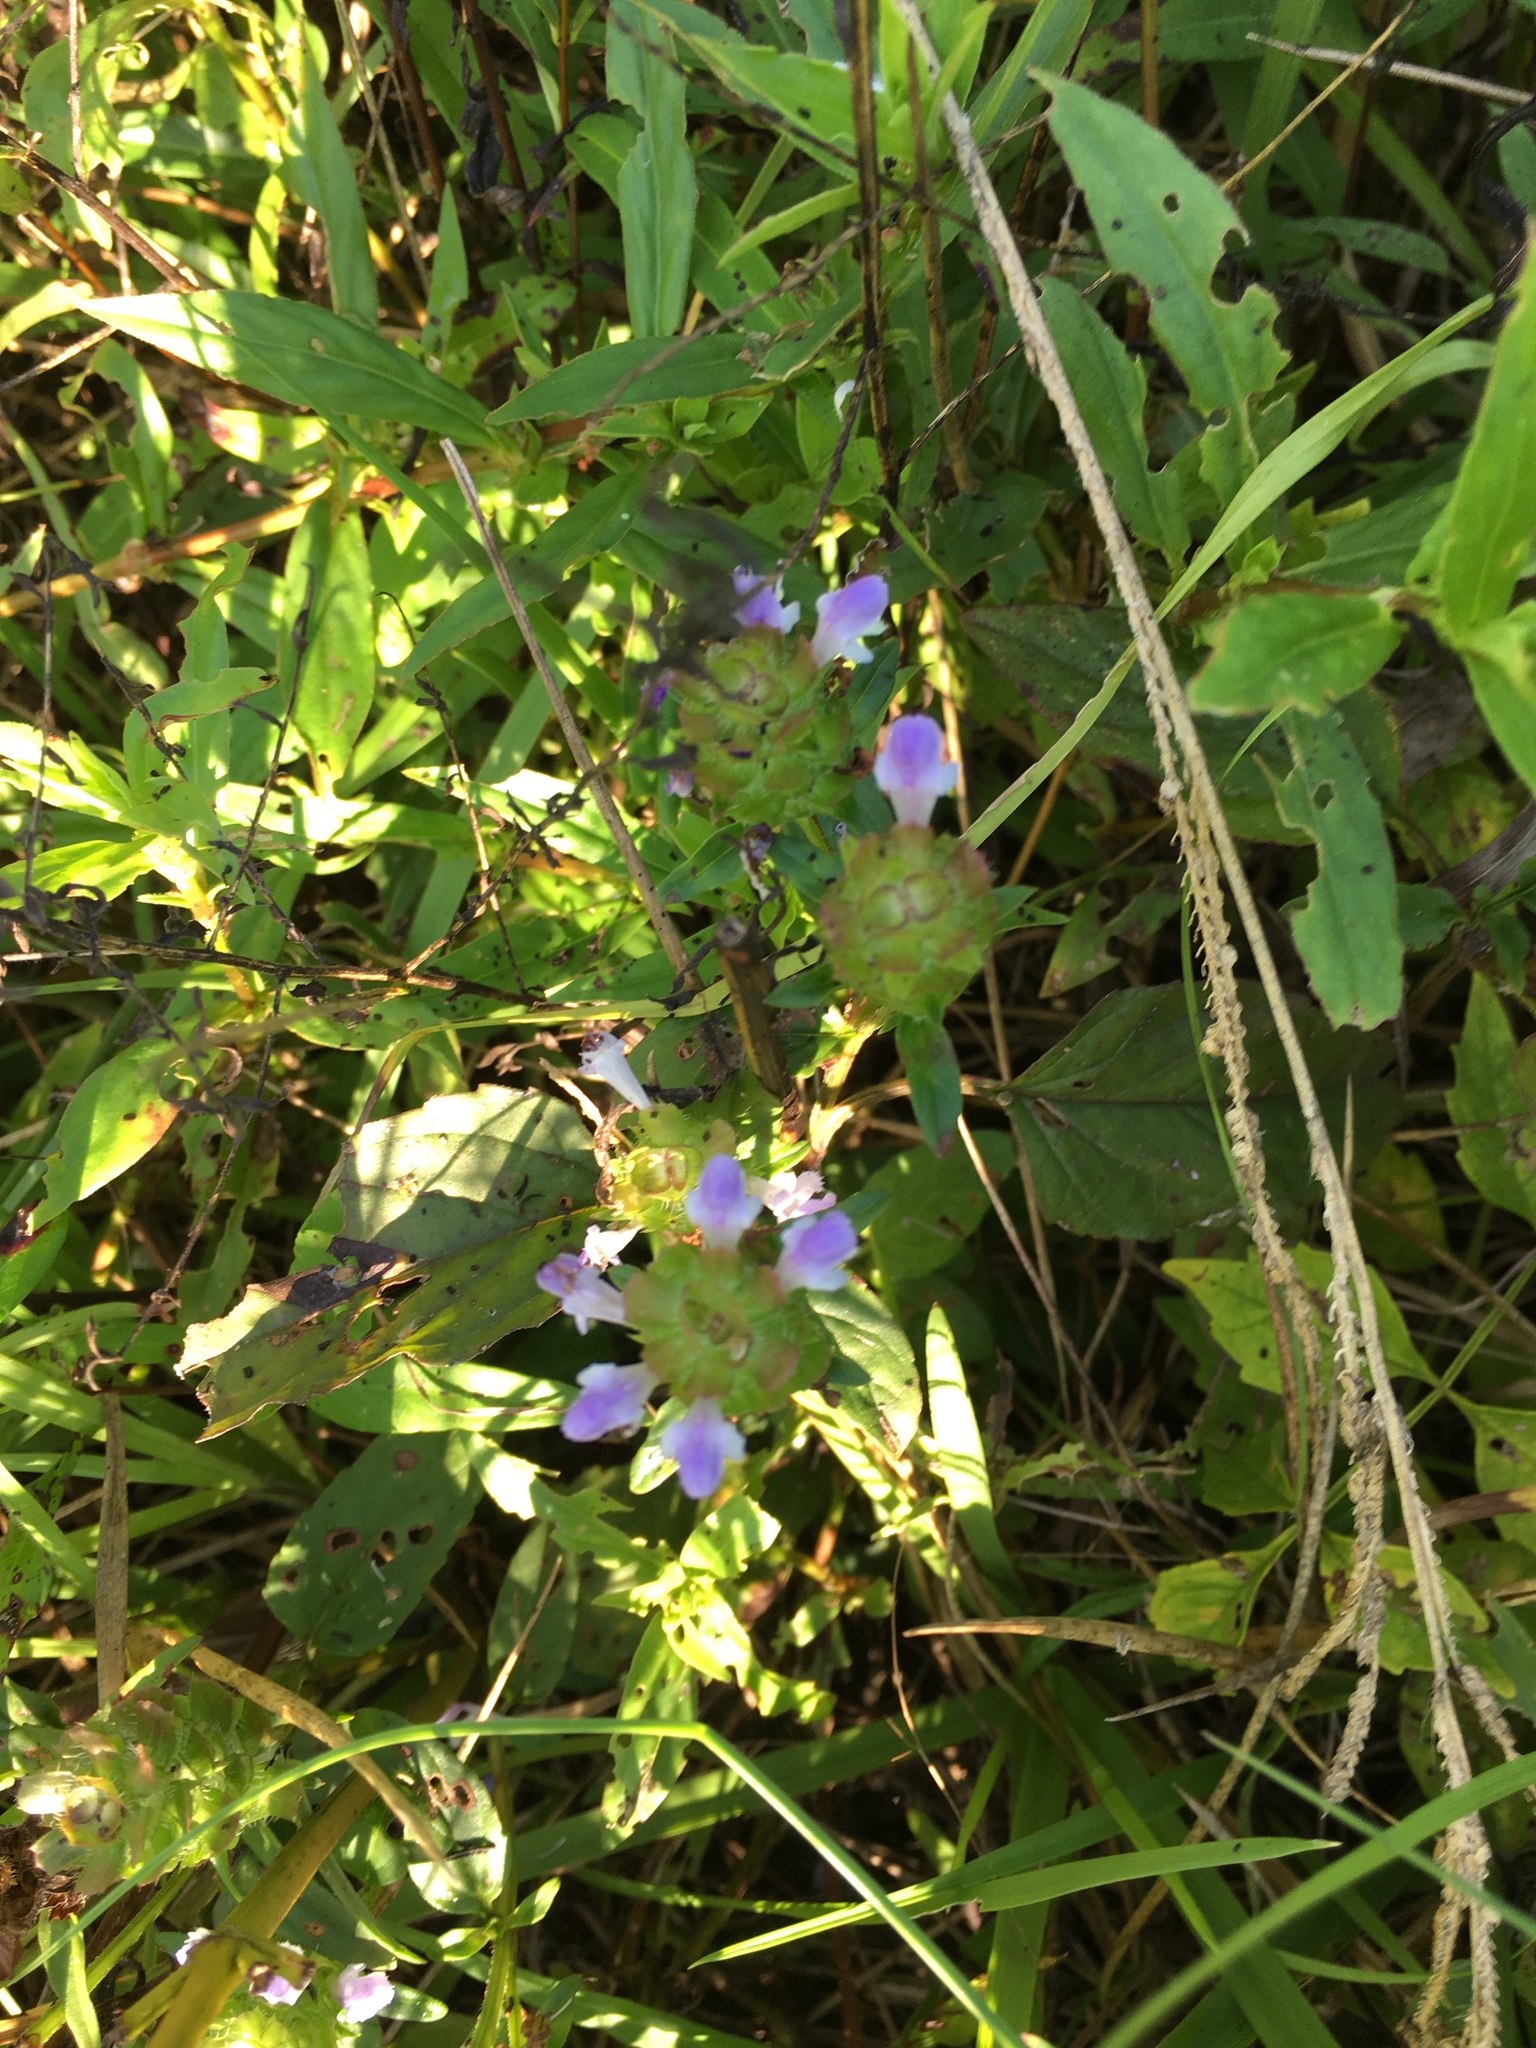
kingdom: Plantae
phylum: Tracheophyta
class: Magnoliopsida
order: Lamiales
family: Lamiaceae
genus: Prunella
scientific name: Prunella vulgaris
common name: Heal-all
